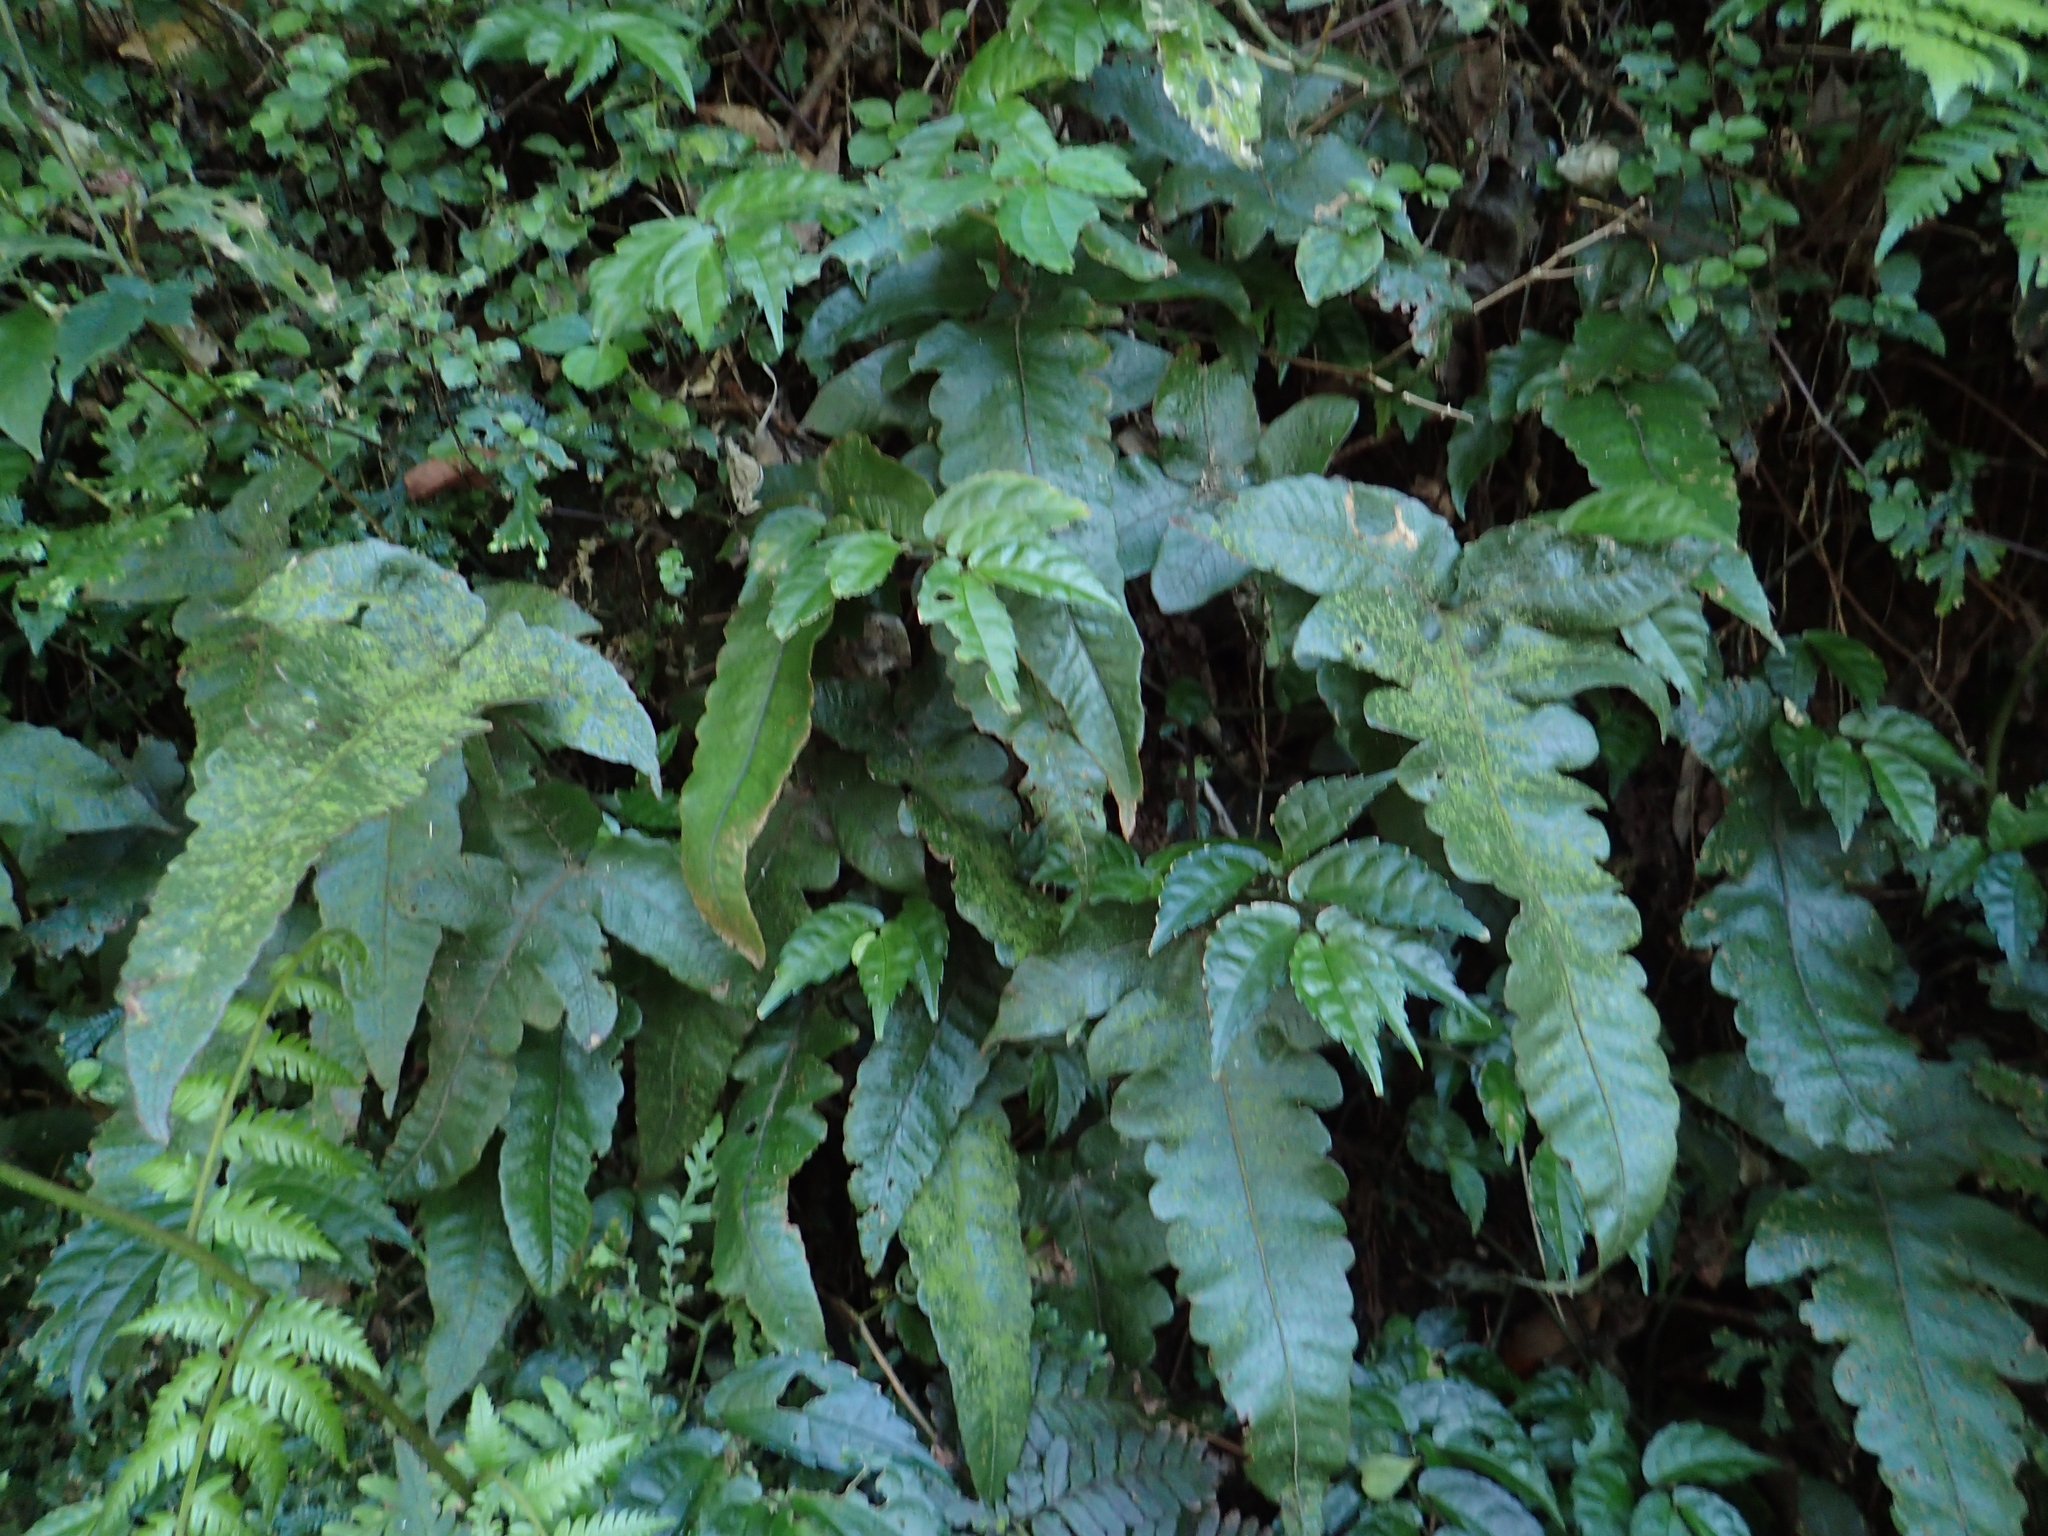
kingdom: Plantae
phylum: Tracheophyta
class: Polypodiopsida
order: Polypodiales
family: Thelypteridaceae
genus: Stegnogramma
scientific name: Stegnogramma wilfordii
